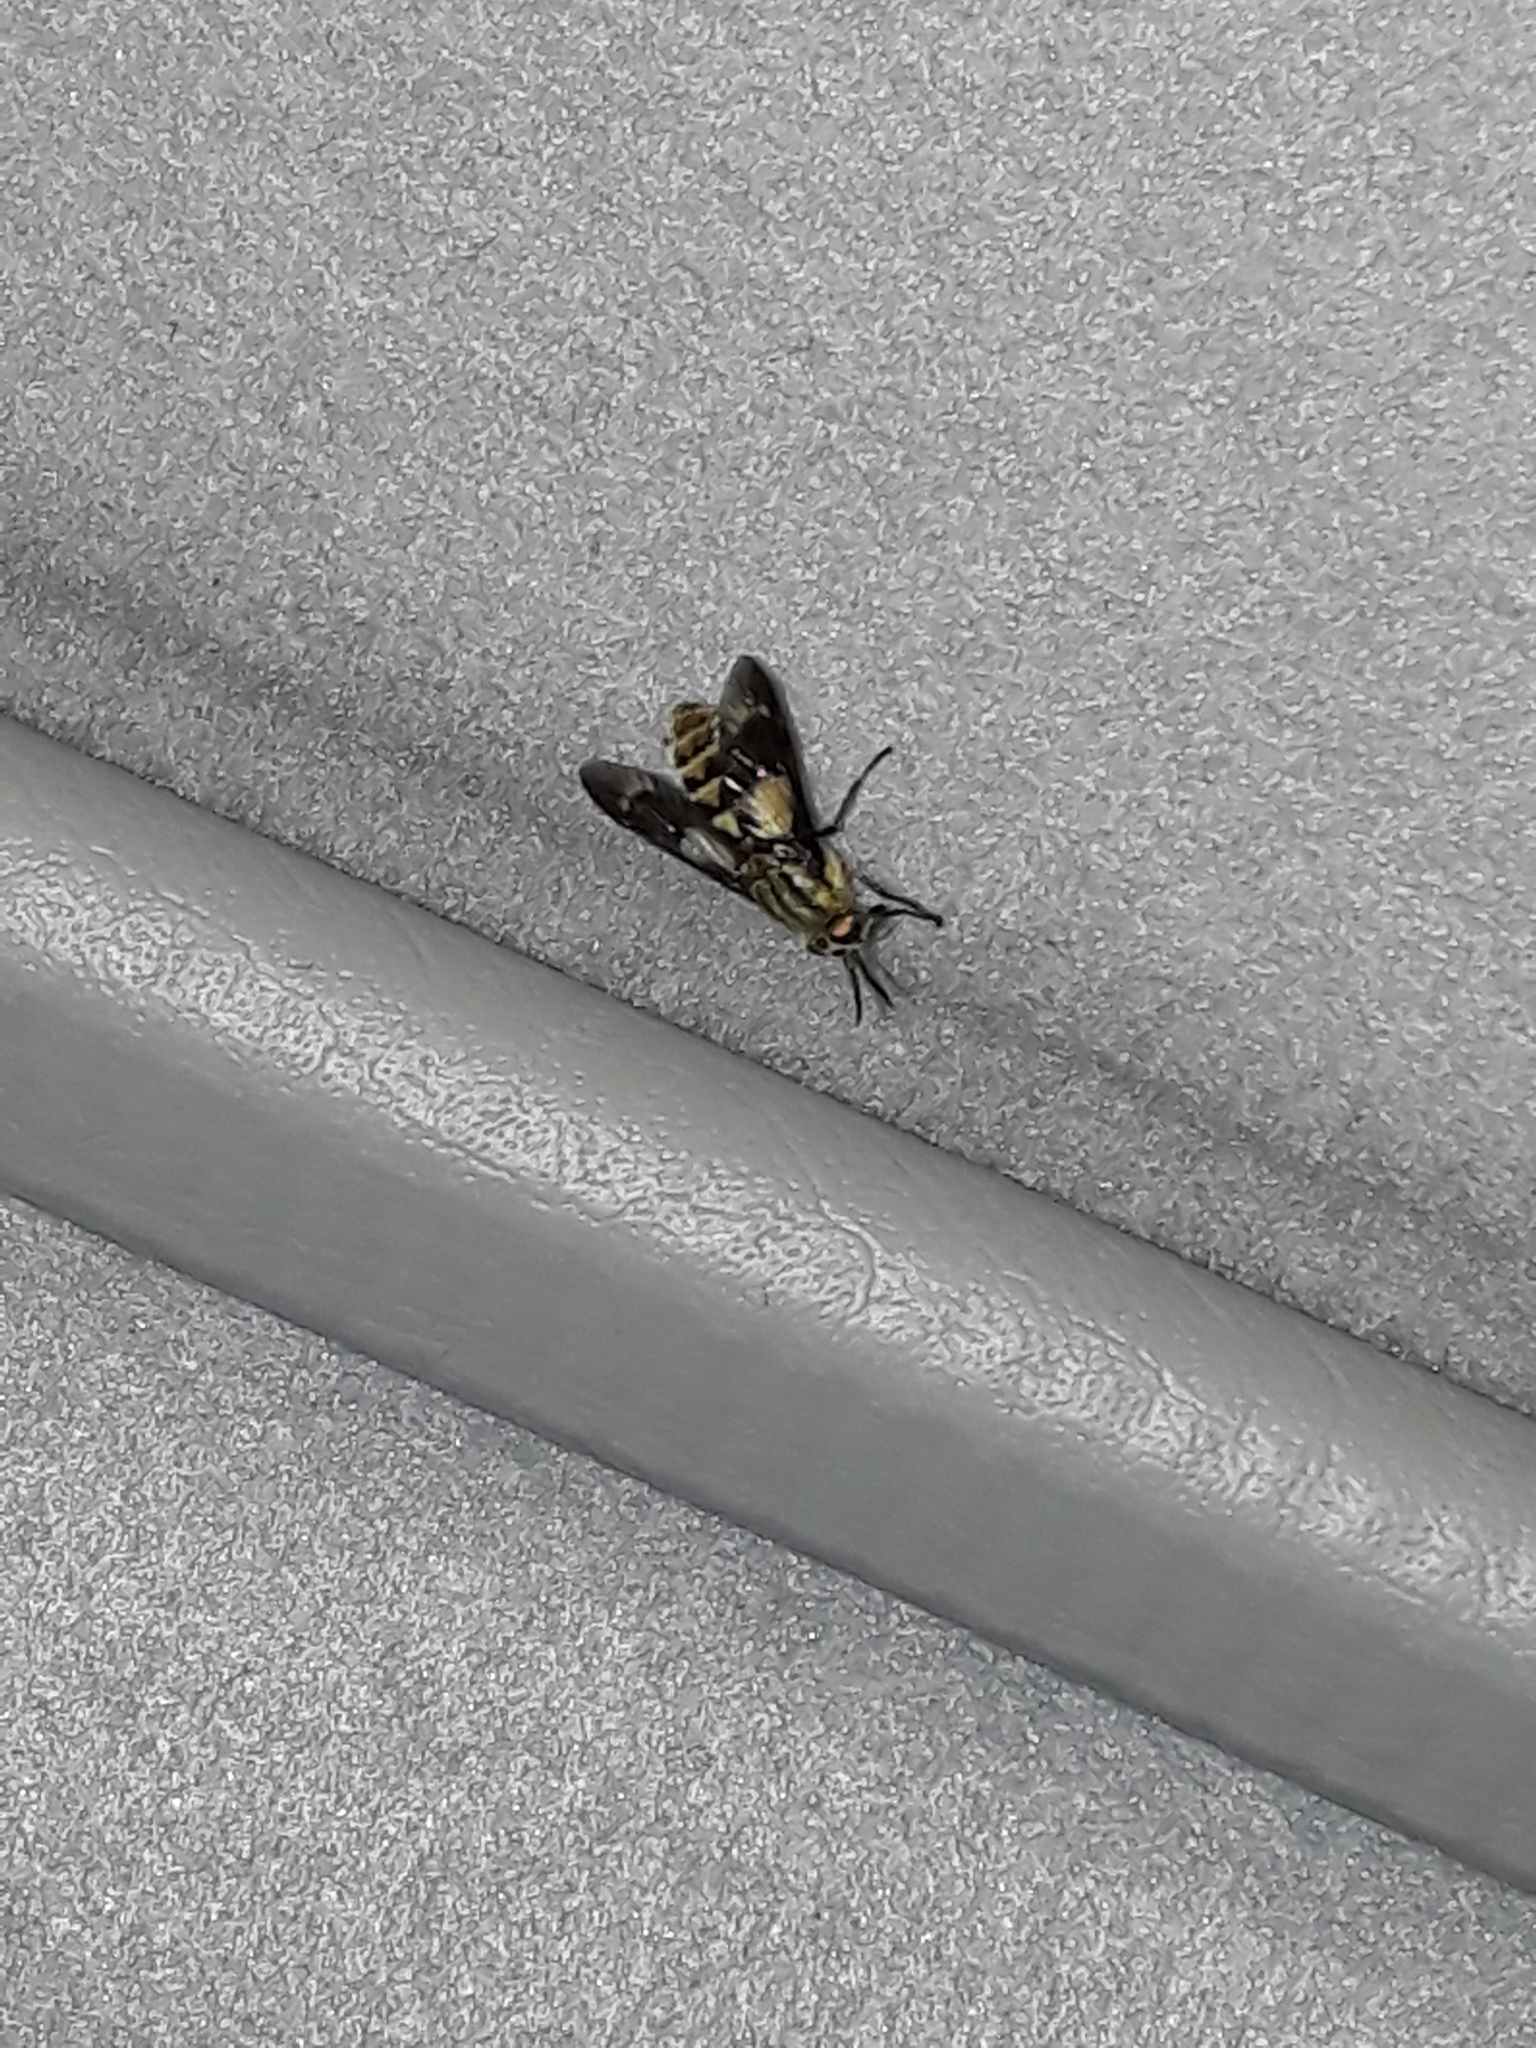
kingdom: Animalia
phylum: Arthropoda
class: Insecta
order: Diptera
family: Tabanidae
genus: Chrysops
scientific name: Chrysops relictus
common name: Twin-lobed deerfly
